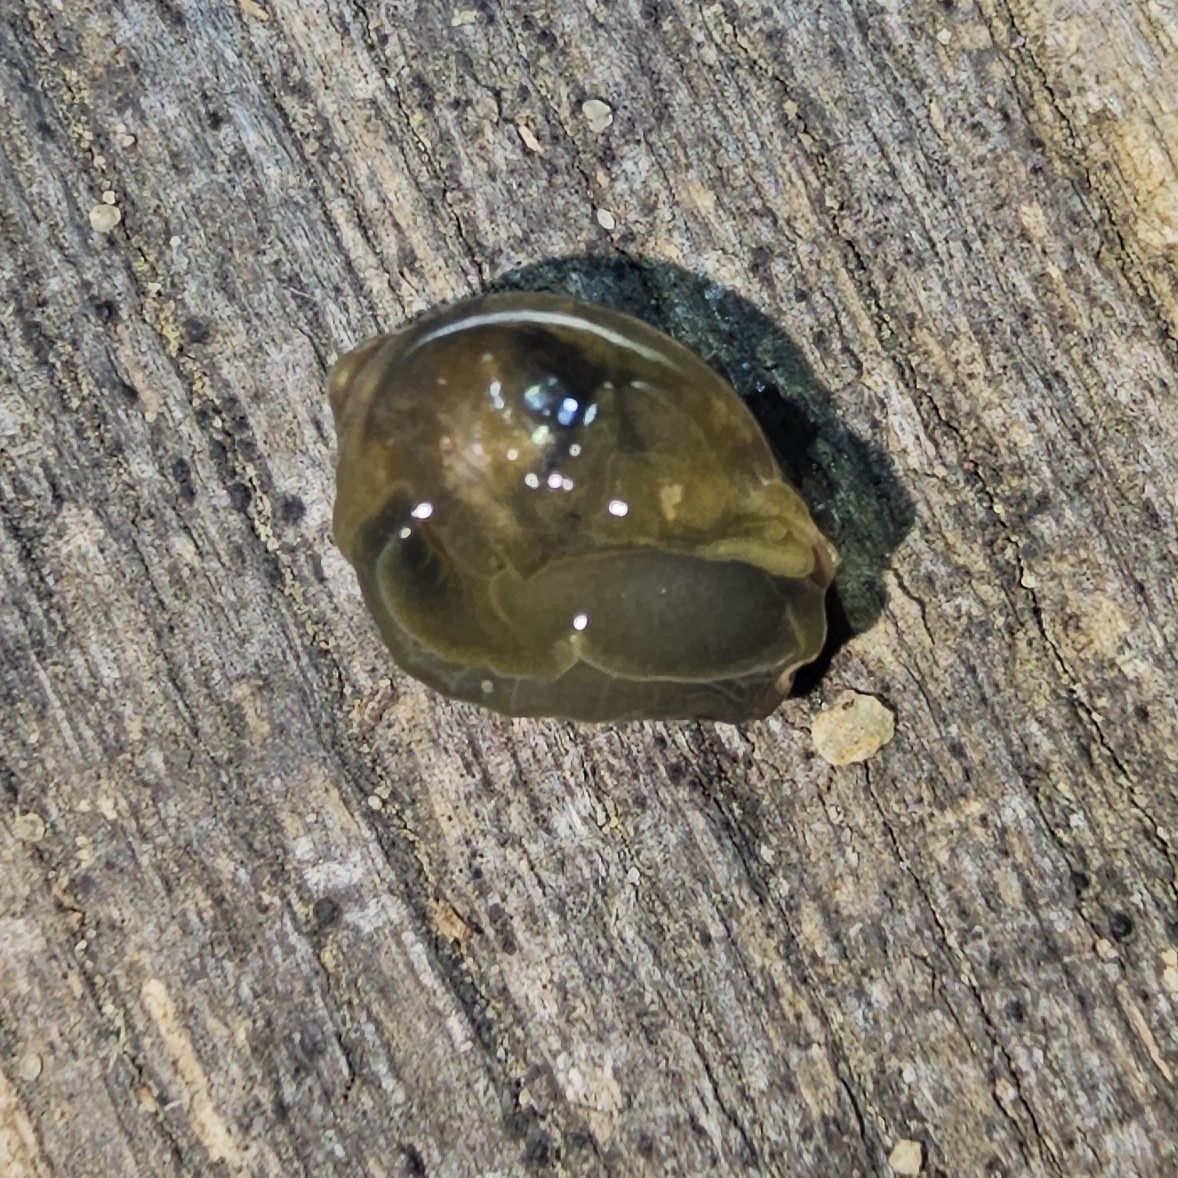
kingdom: Animalia
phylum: Mollusca
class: Gastropoda
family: Physidae
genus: Physella
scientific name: Physella acuta
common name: European physa
